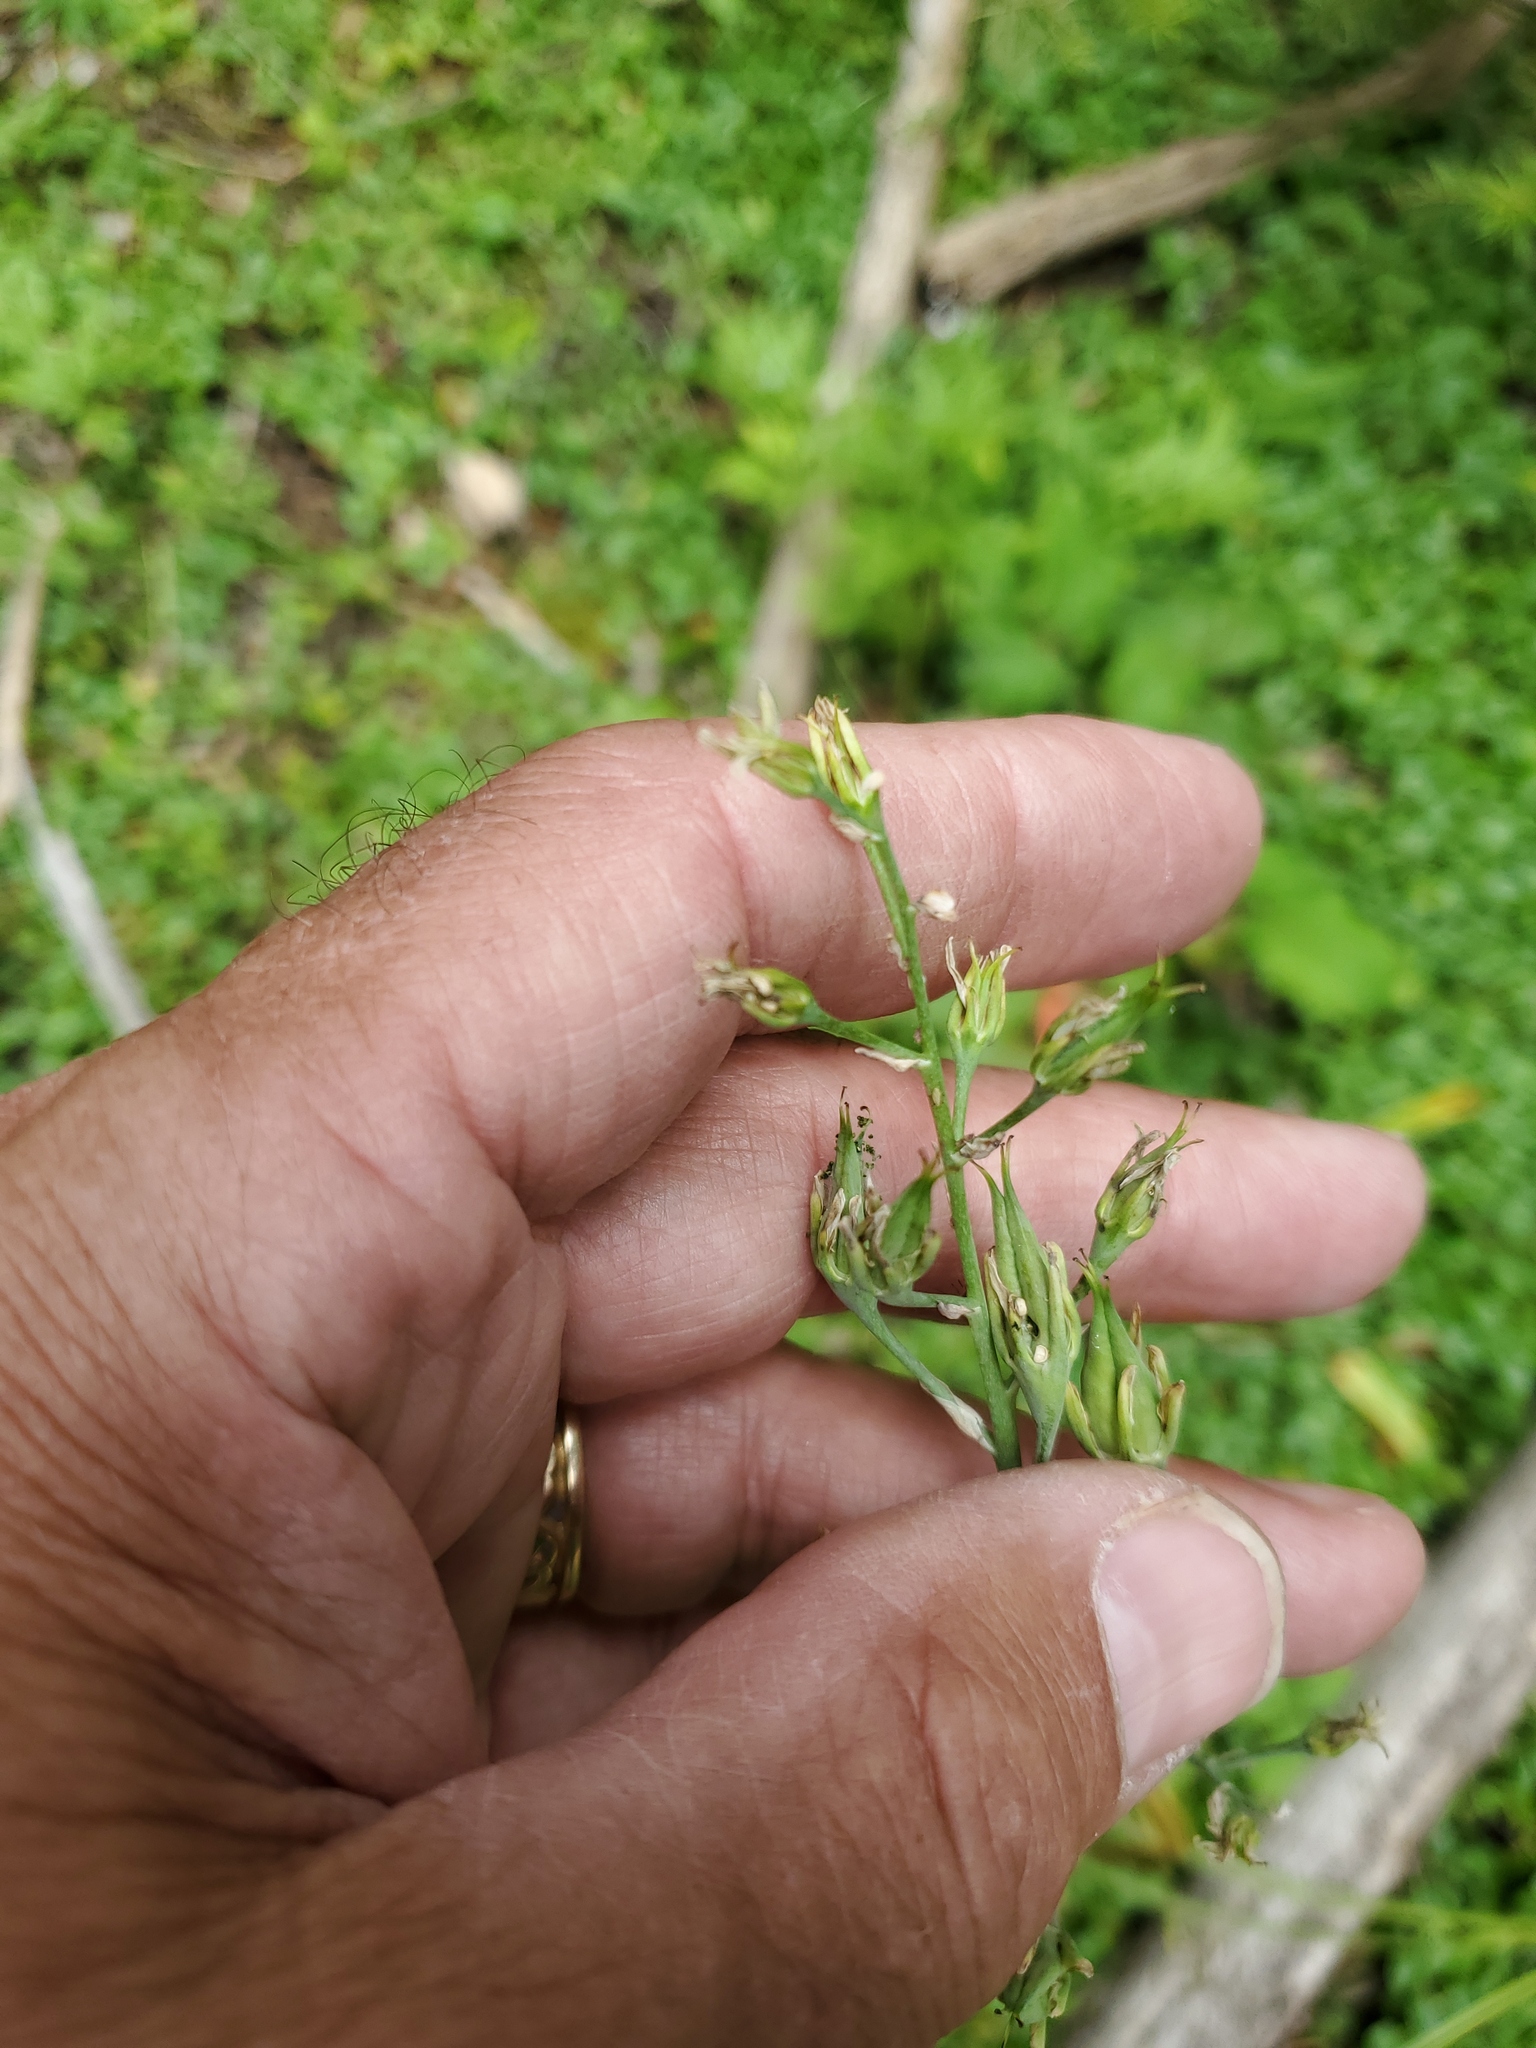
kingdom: Plantae
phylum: Tracheophyta
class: Liliopsida
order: Liliales
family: Melanthiaceae
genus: Anticlea
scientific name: Anticlea elegans
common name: Mountain death camas
